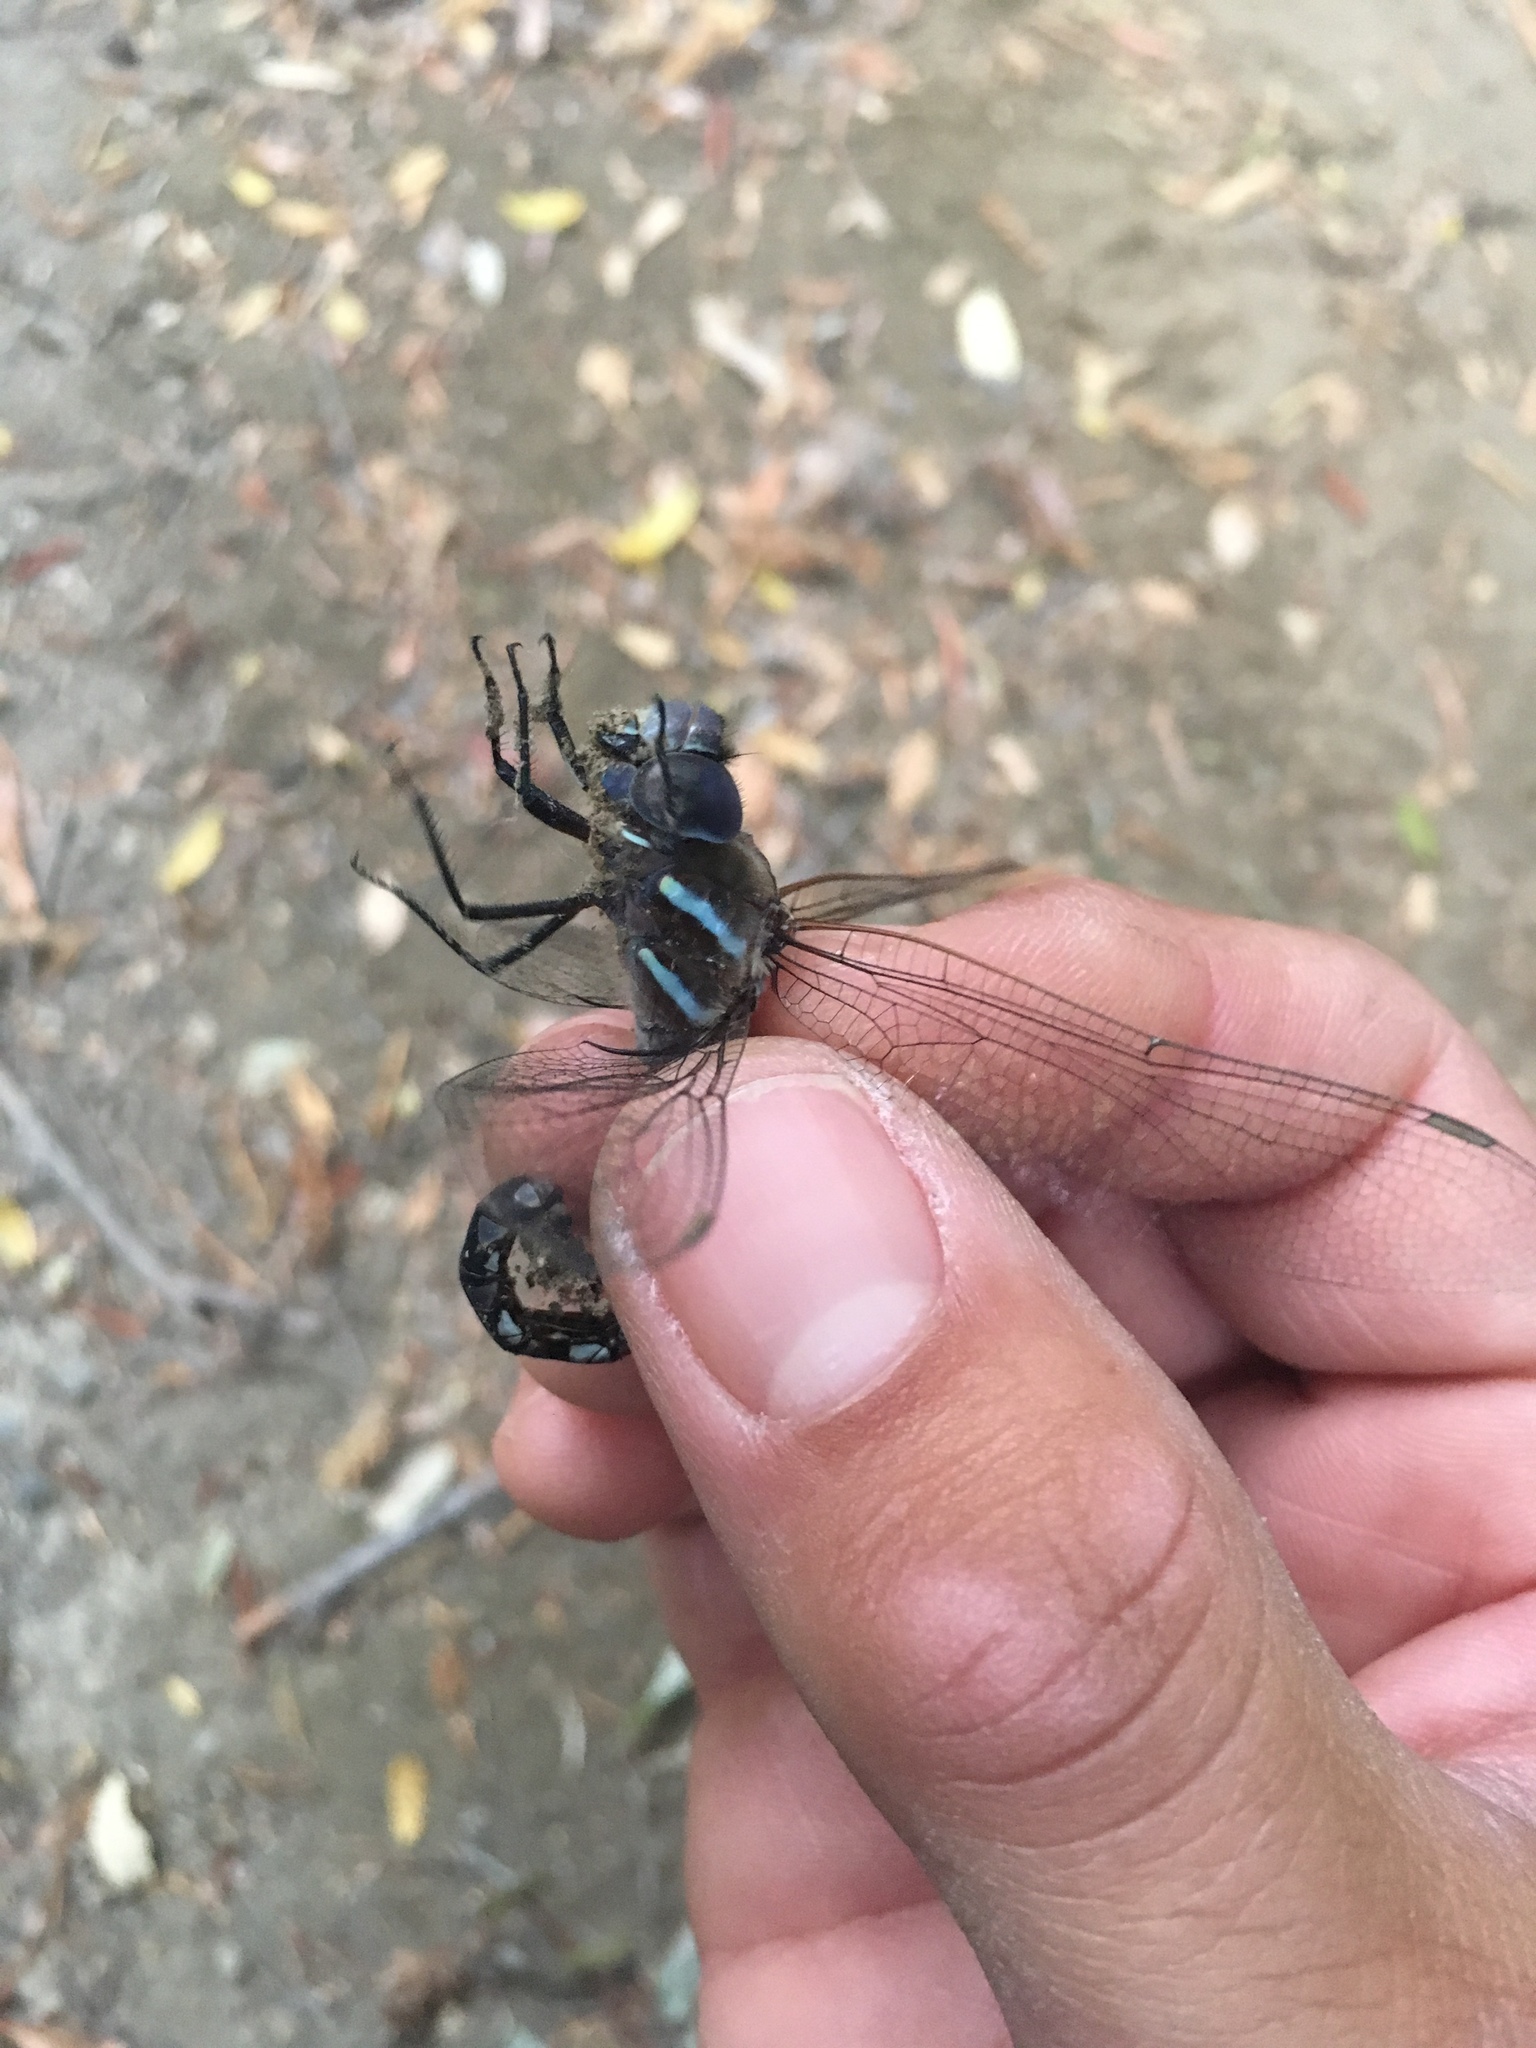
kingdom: Animalia
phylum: Arthropoda
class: Insecta
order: Odonata
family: Aeshnidae
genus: Rhionaeschna
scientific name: Rhionaeschna multicolor
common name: Blue-eyed darner
